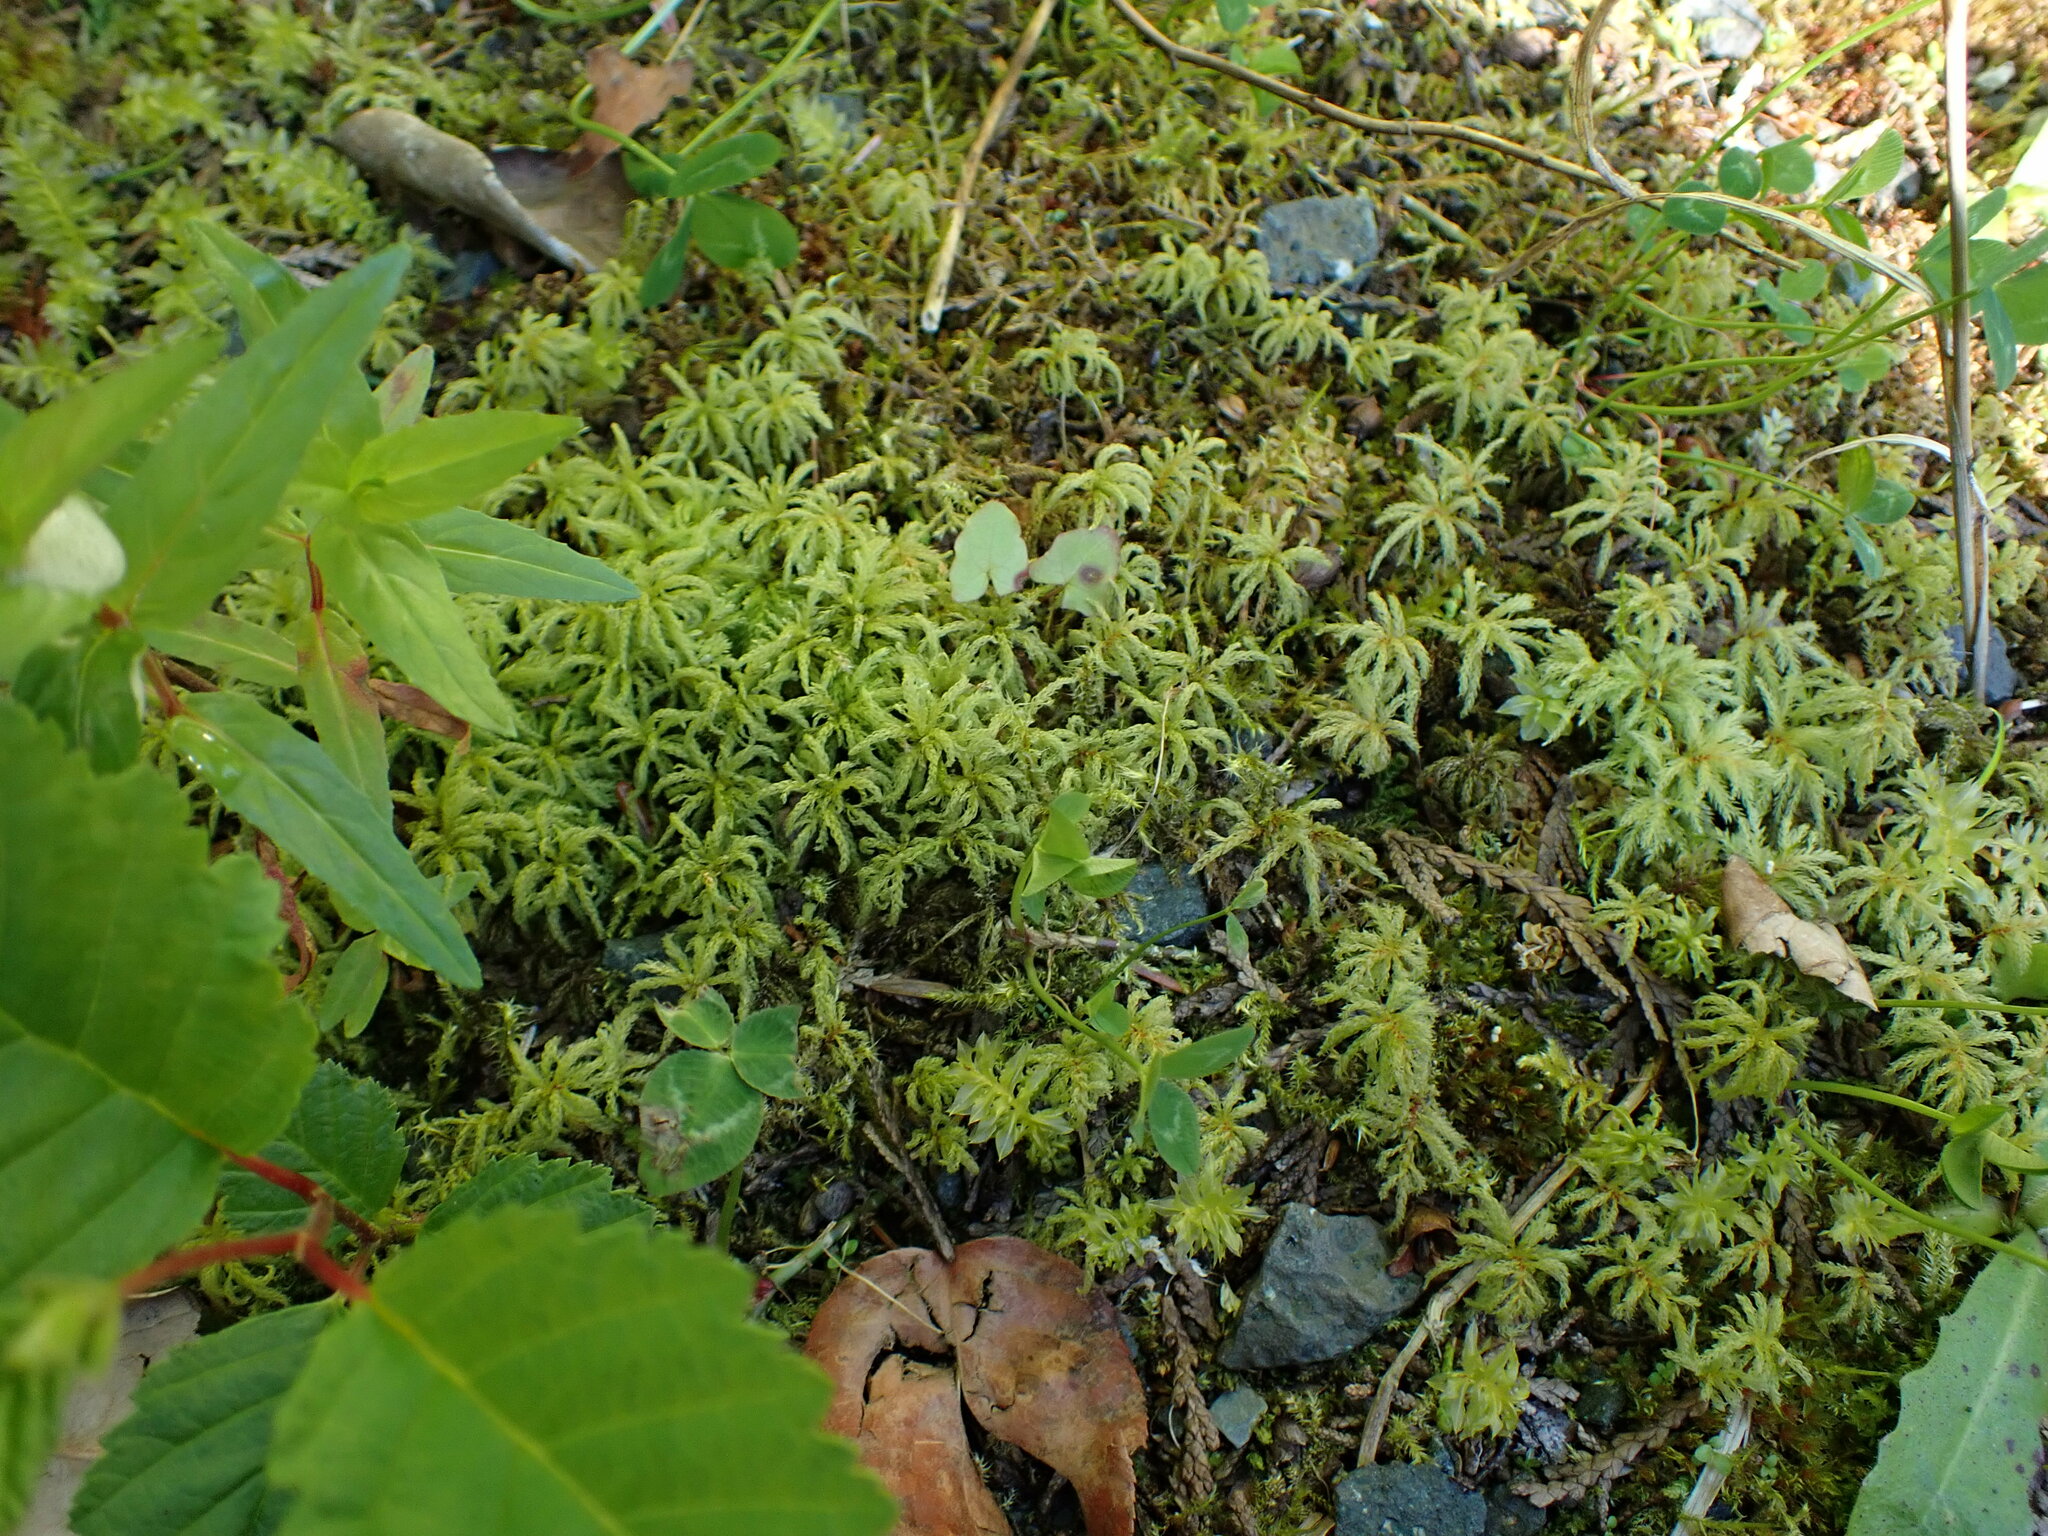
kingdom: Plantae
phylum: Bryophyta
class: Bryopsida
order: Bryales
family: Mniaceae
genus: Leucolepis
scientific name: Leucolepis acanthoneura
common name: Leucolepis umbrella moss
